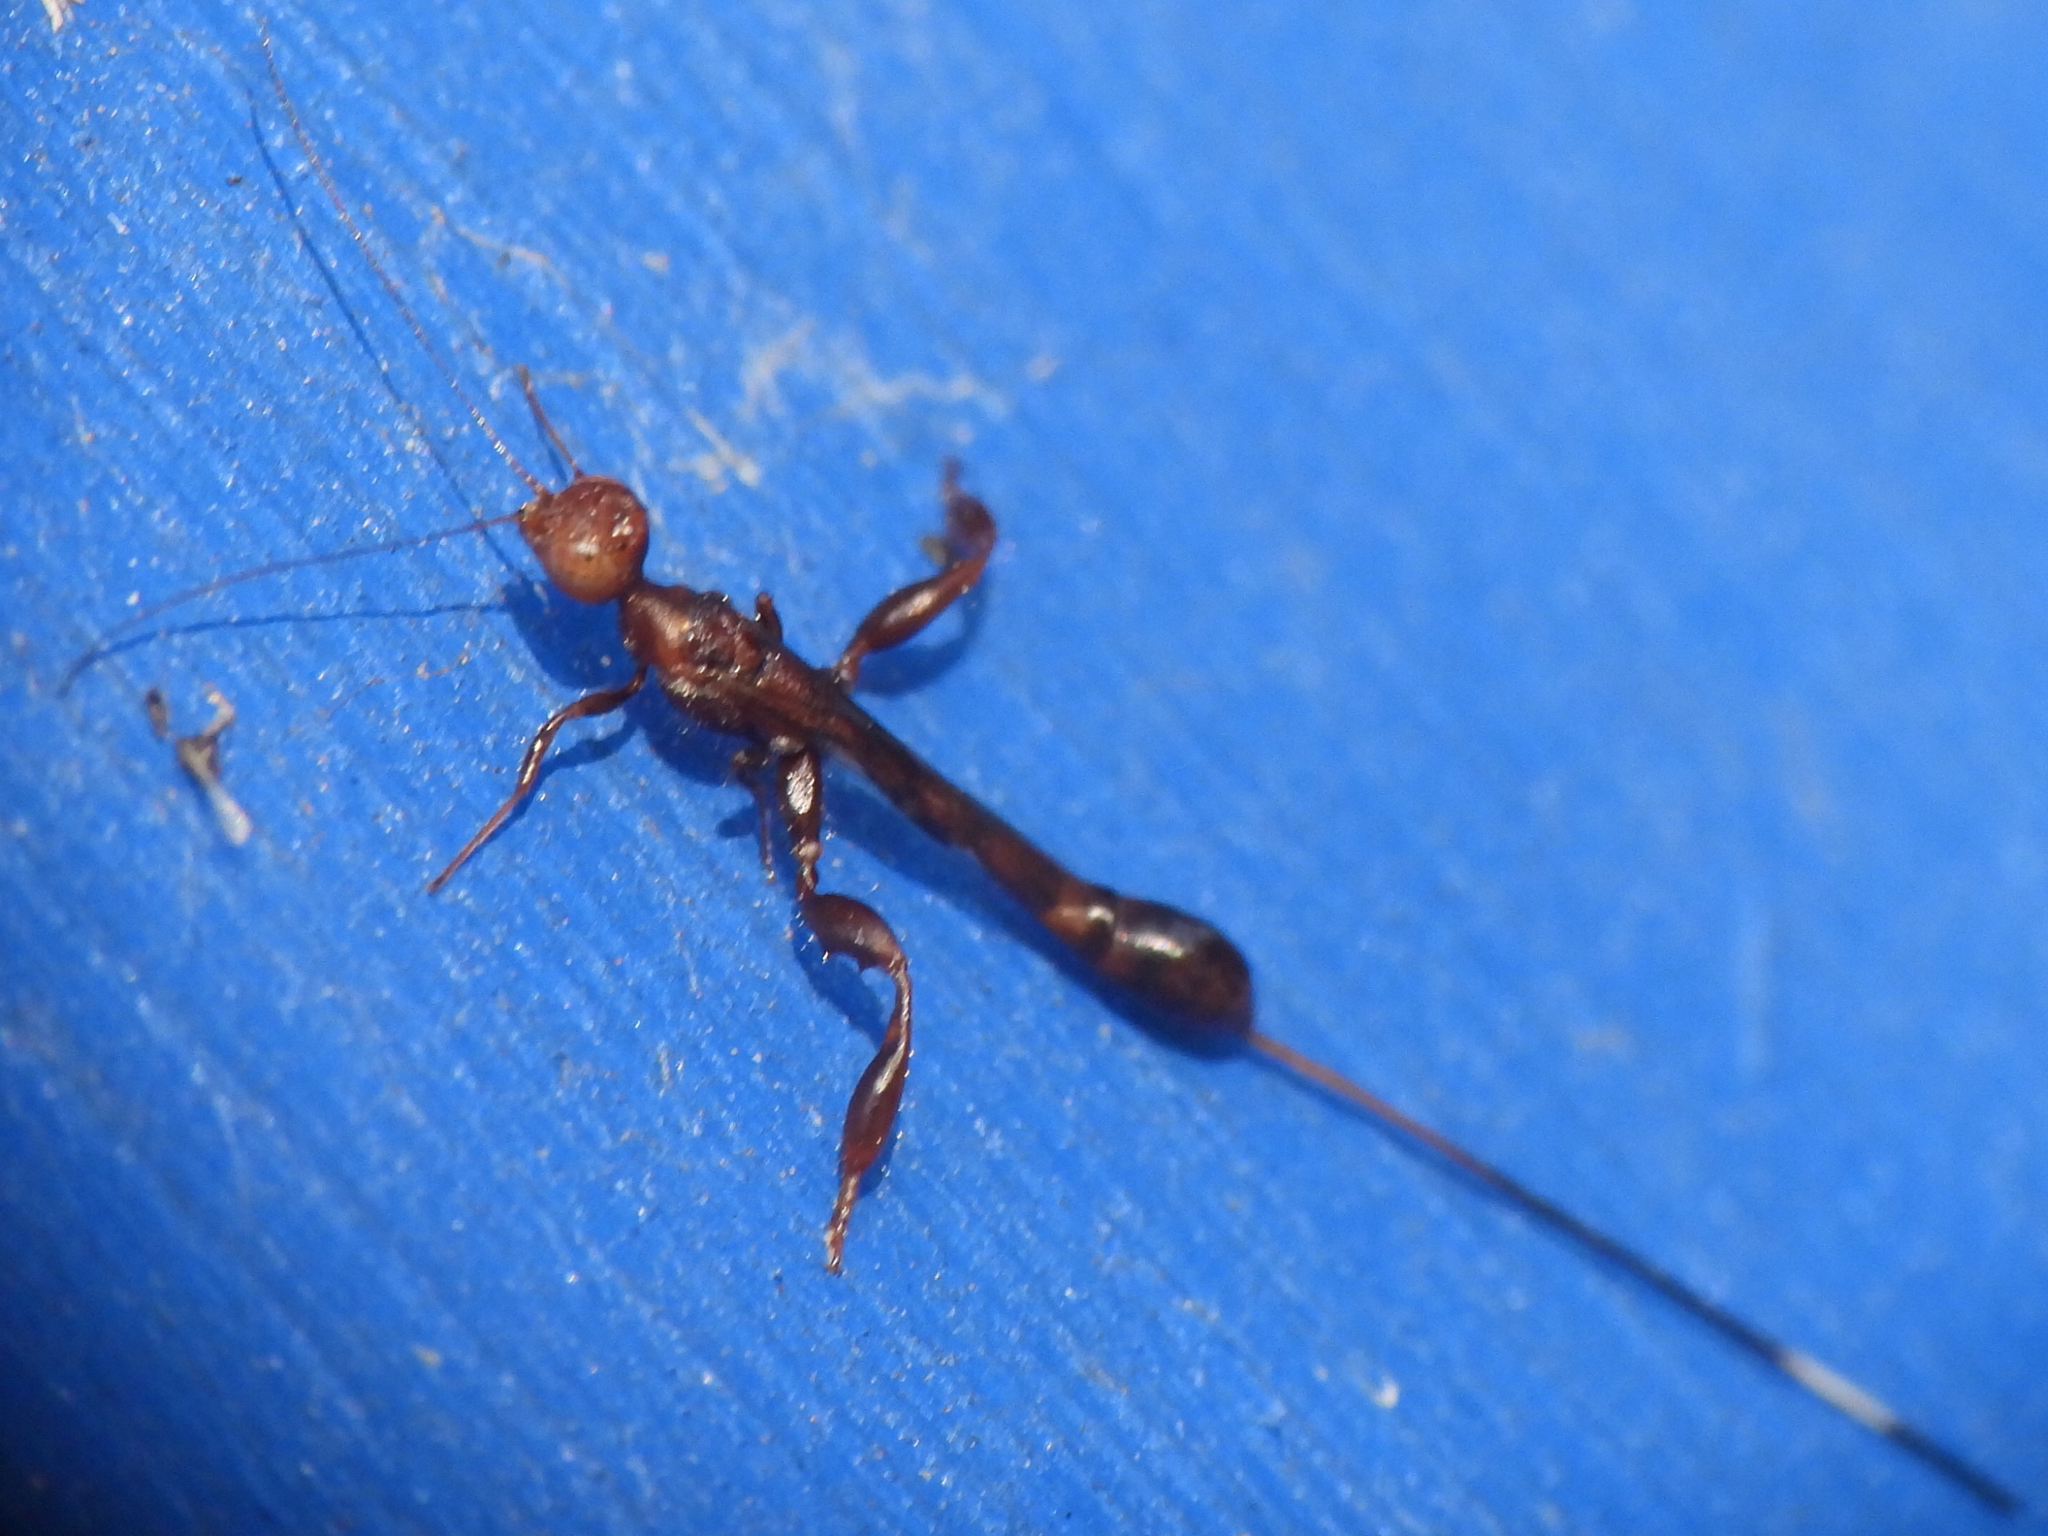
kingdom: Animalia
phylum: Arthropoda
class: Insecta
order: Hymenoptera
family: Stephanidae
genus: Megischus
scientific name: Megischus
